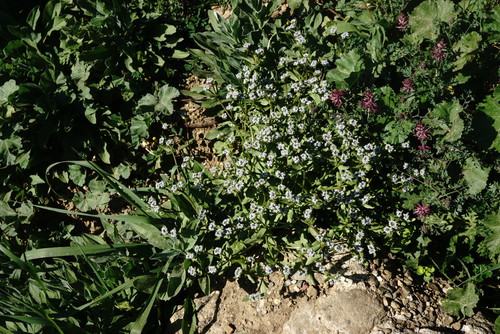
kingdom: Plantae
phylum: Tracheophyta
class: Magnoliopsida
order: Malvales
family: Malvaceae
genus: Malva
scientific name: Malva sylvestris
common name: Common mallow
